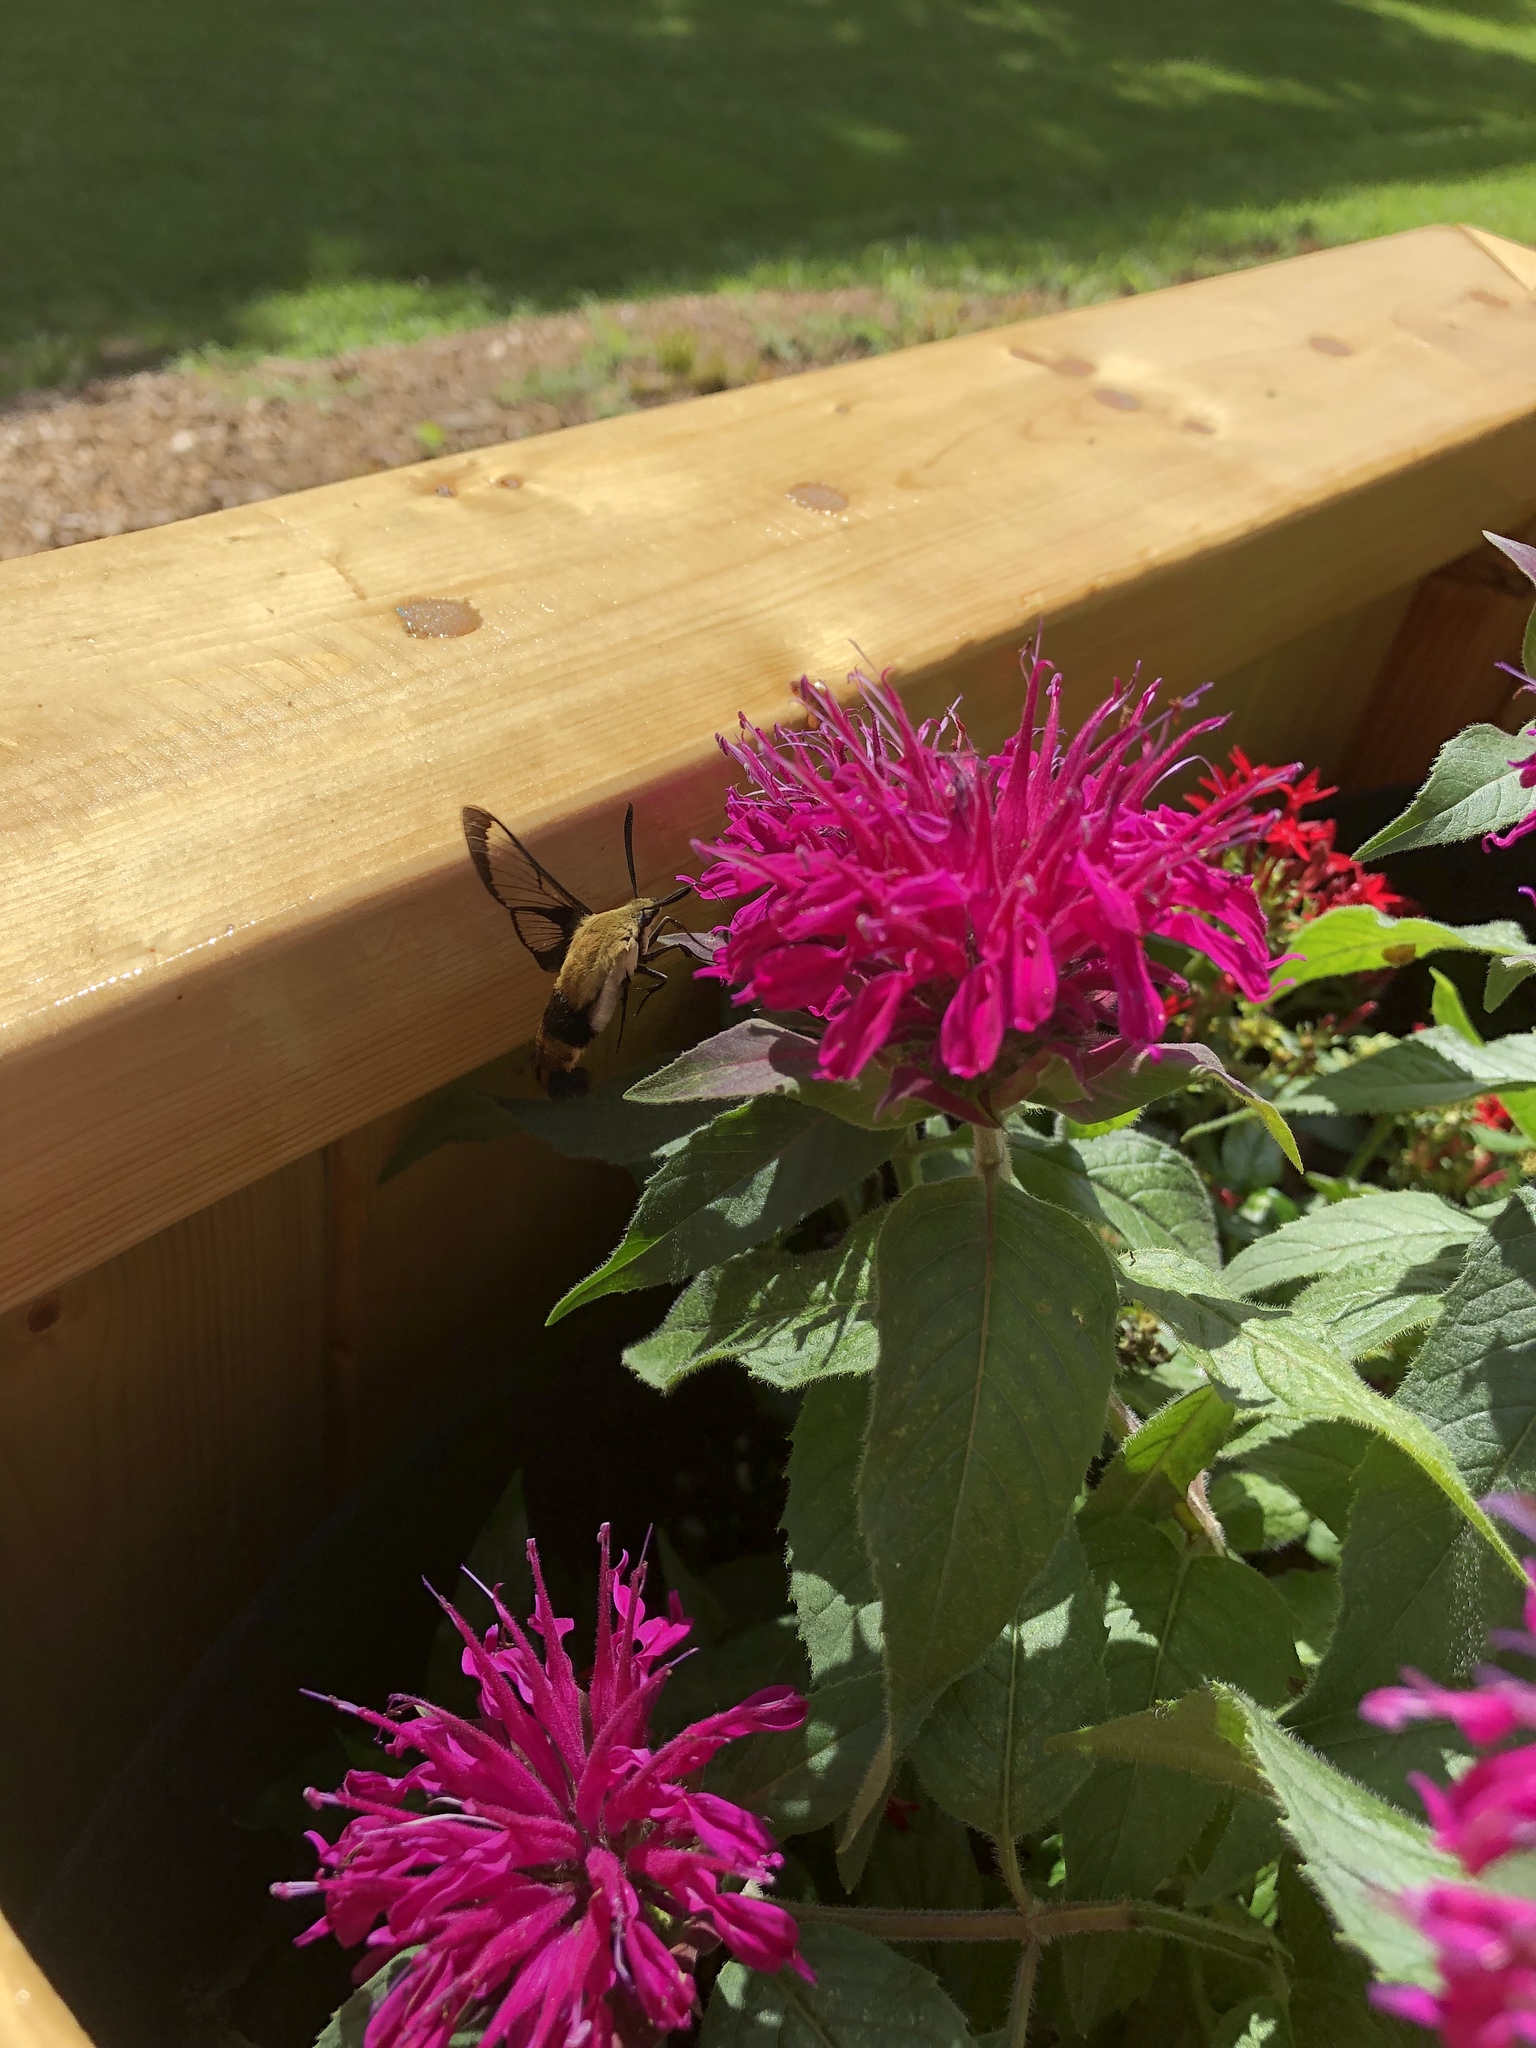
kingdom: Animalia
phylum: Arthropoda
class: Insecta
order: Lepidoptera
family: Sphingidae
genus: Hemaris
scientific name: Hemaris diffinis
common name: Bumblebee moth
